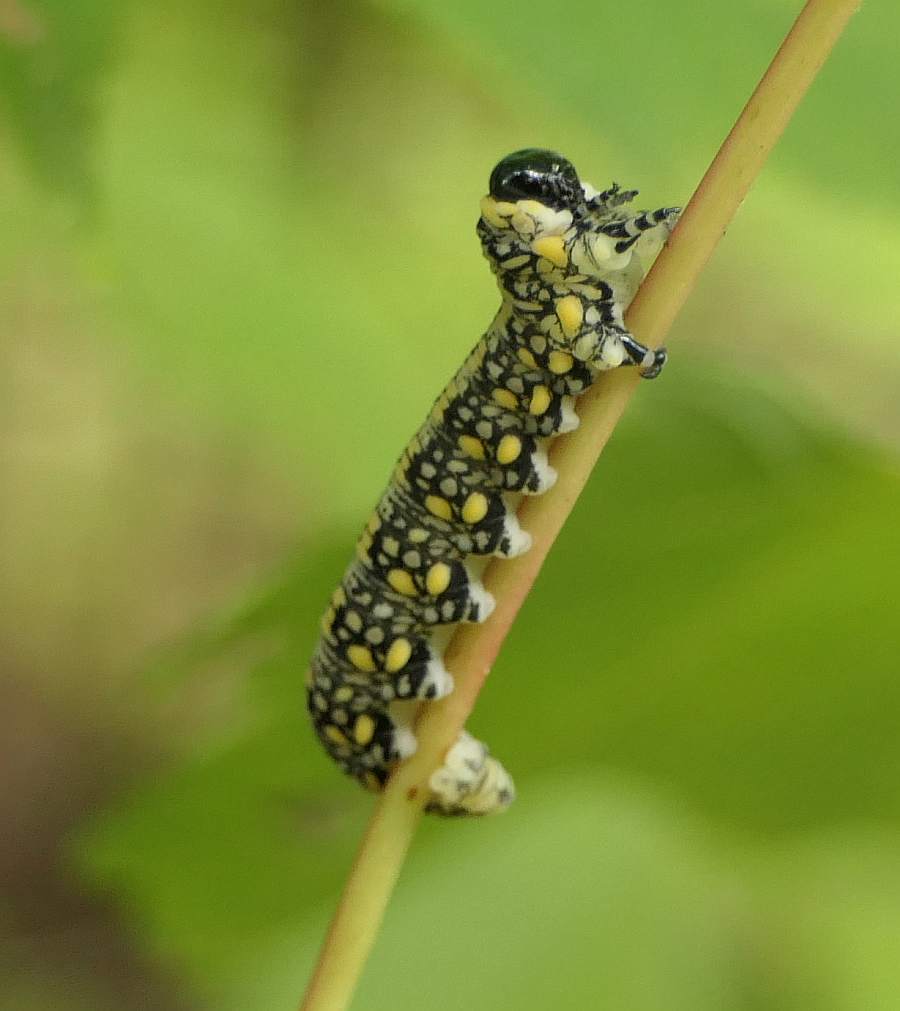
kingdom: Animalia
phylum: Arthropoda
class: Insecta
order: Hymenoptera
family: Diprionidae
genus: Diprion
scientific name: Diprion similis
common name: Pine sawfly
